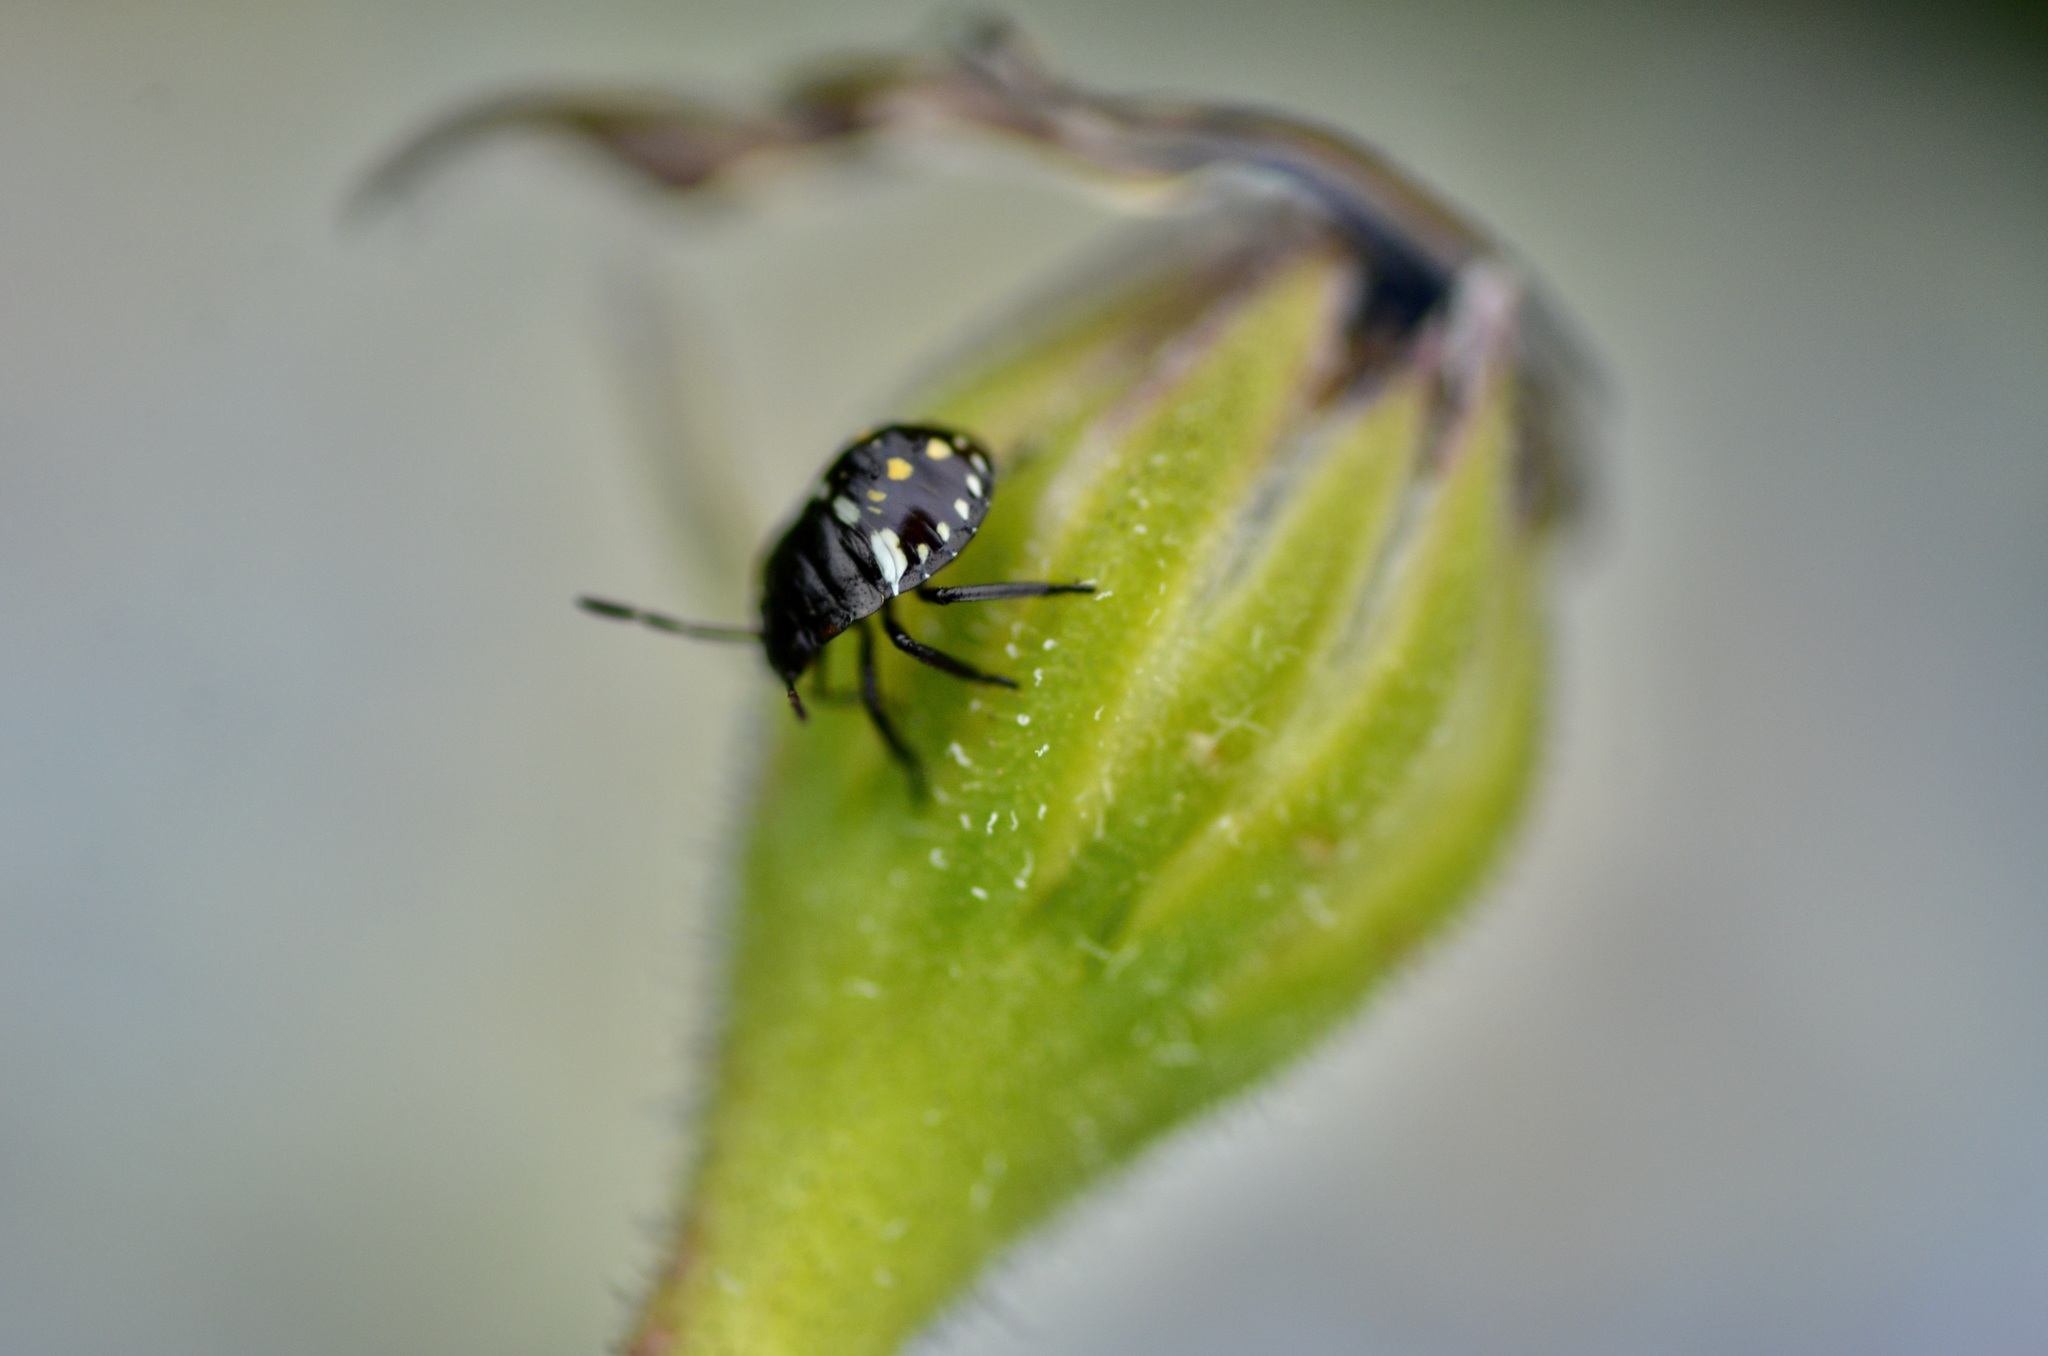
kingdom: Animalia
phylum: Arthropoda
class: Insecta
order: Hemiptera
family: Pentatomidae
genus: Nezara
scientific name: Nezara viridula
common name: Southern green stink bug
